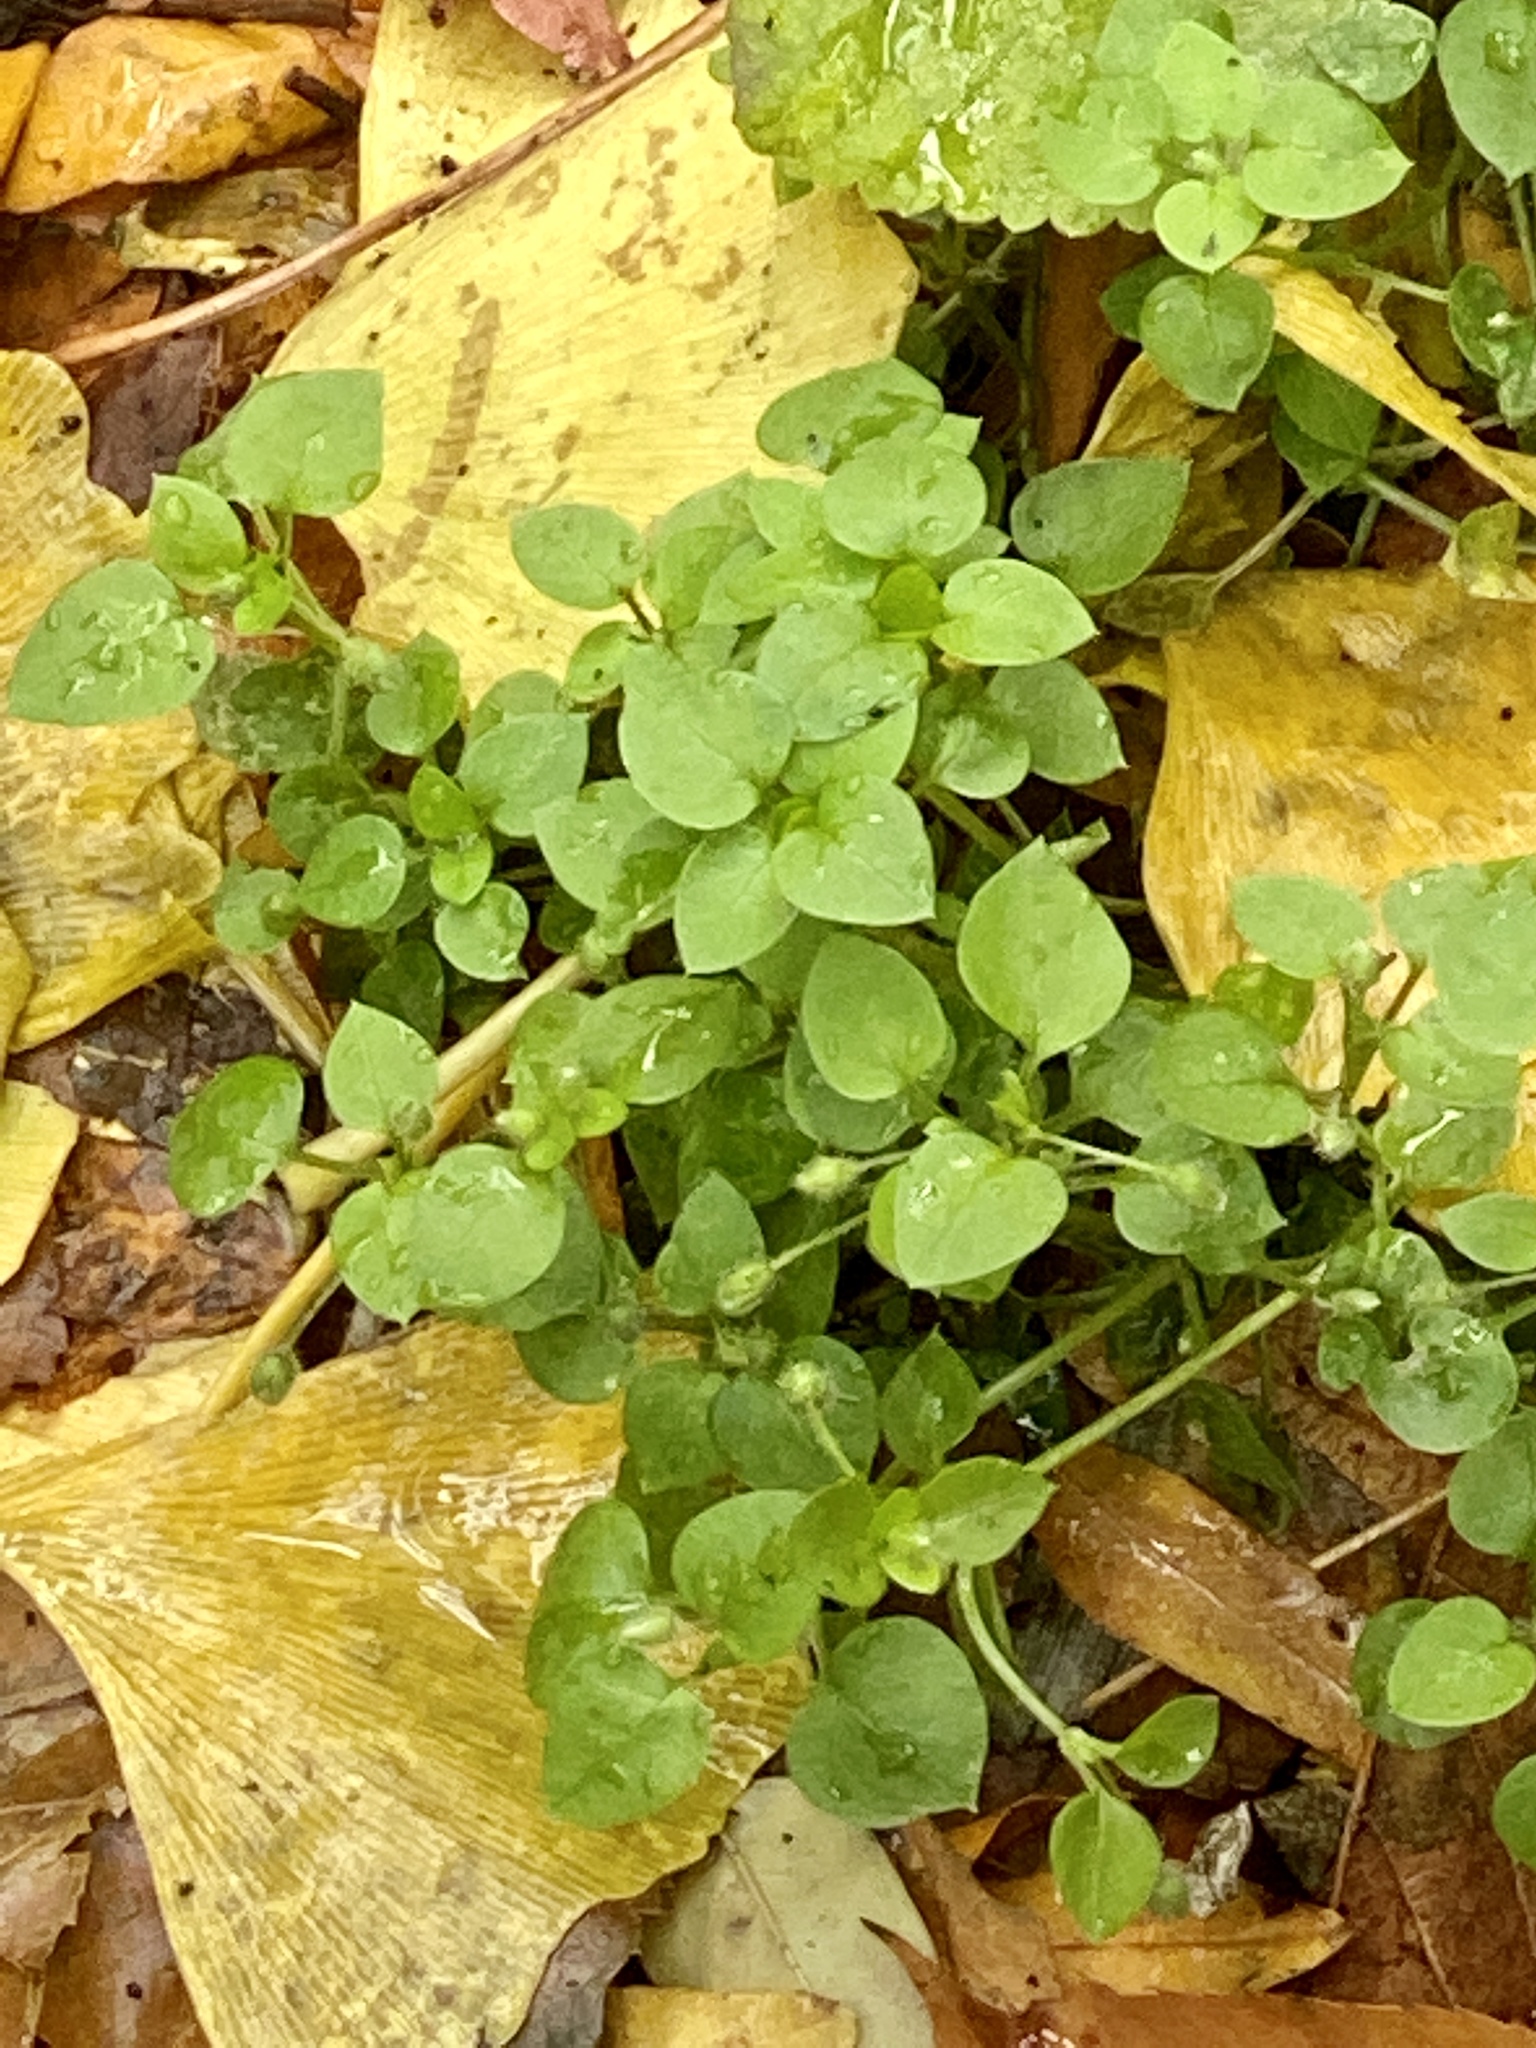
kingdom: Plantae
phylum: Tracheophyta
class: Magnoliopsida
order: Caryophyllales
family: Caryophyllaceae
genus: Stellaria
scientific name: Stellaria media
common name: Common chickweed
